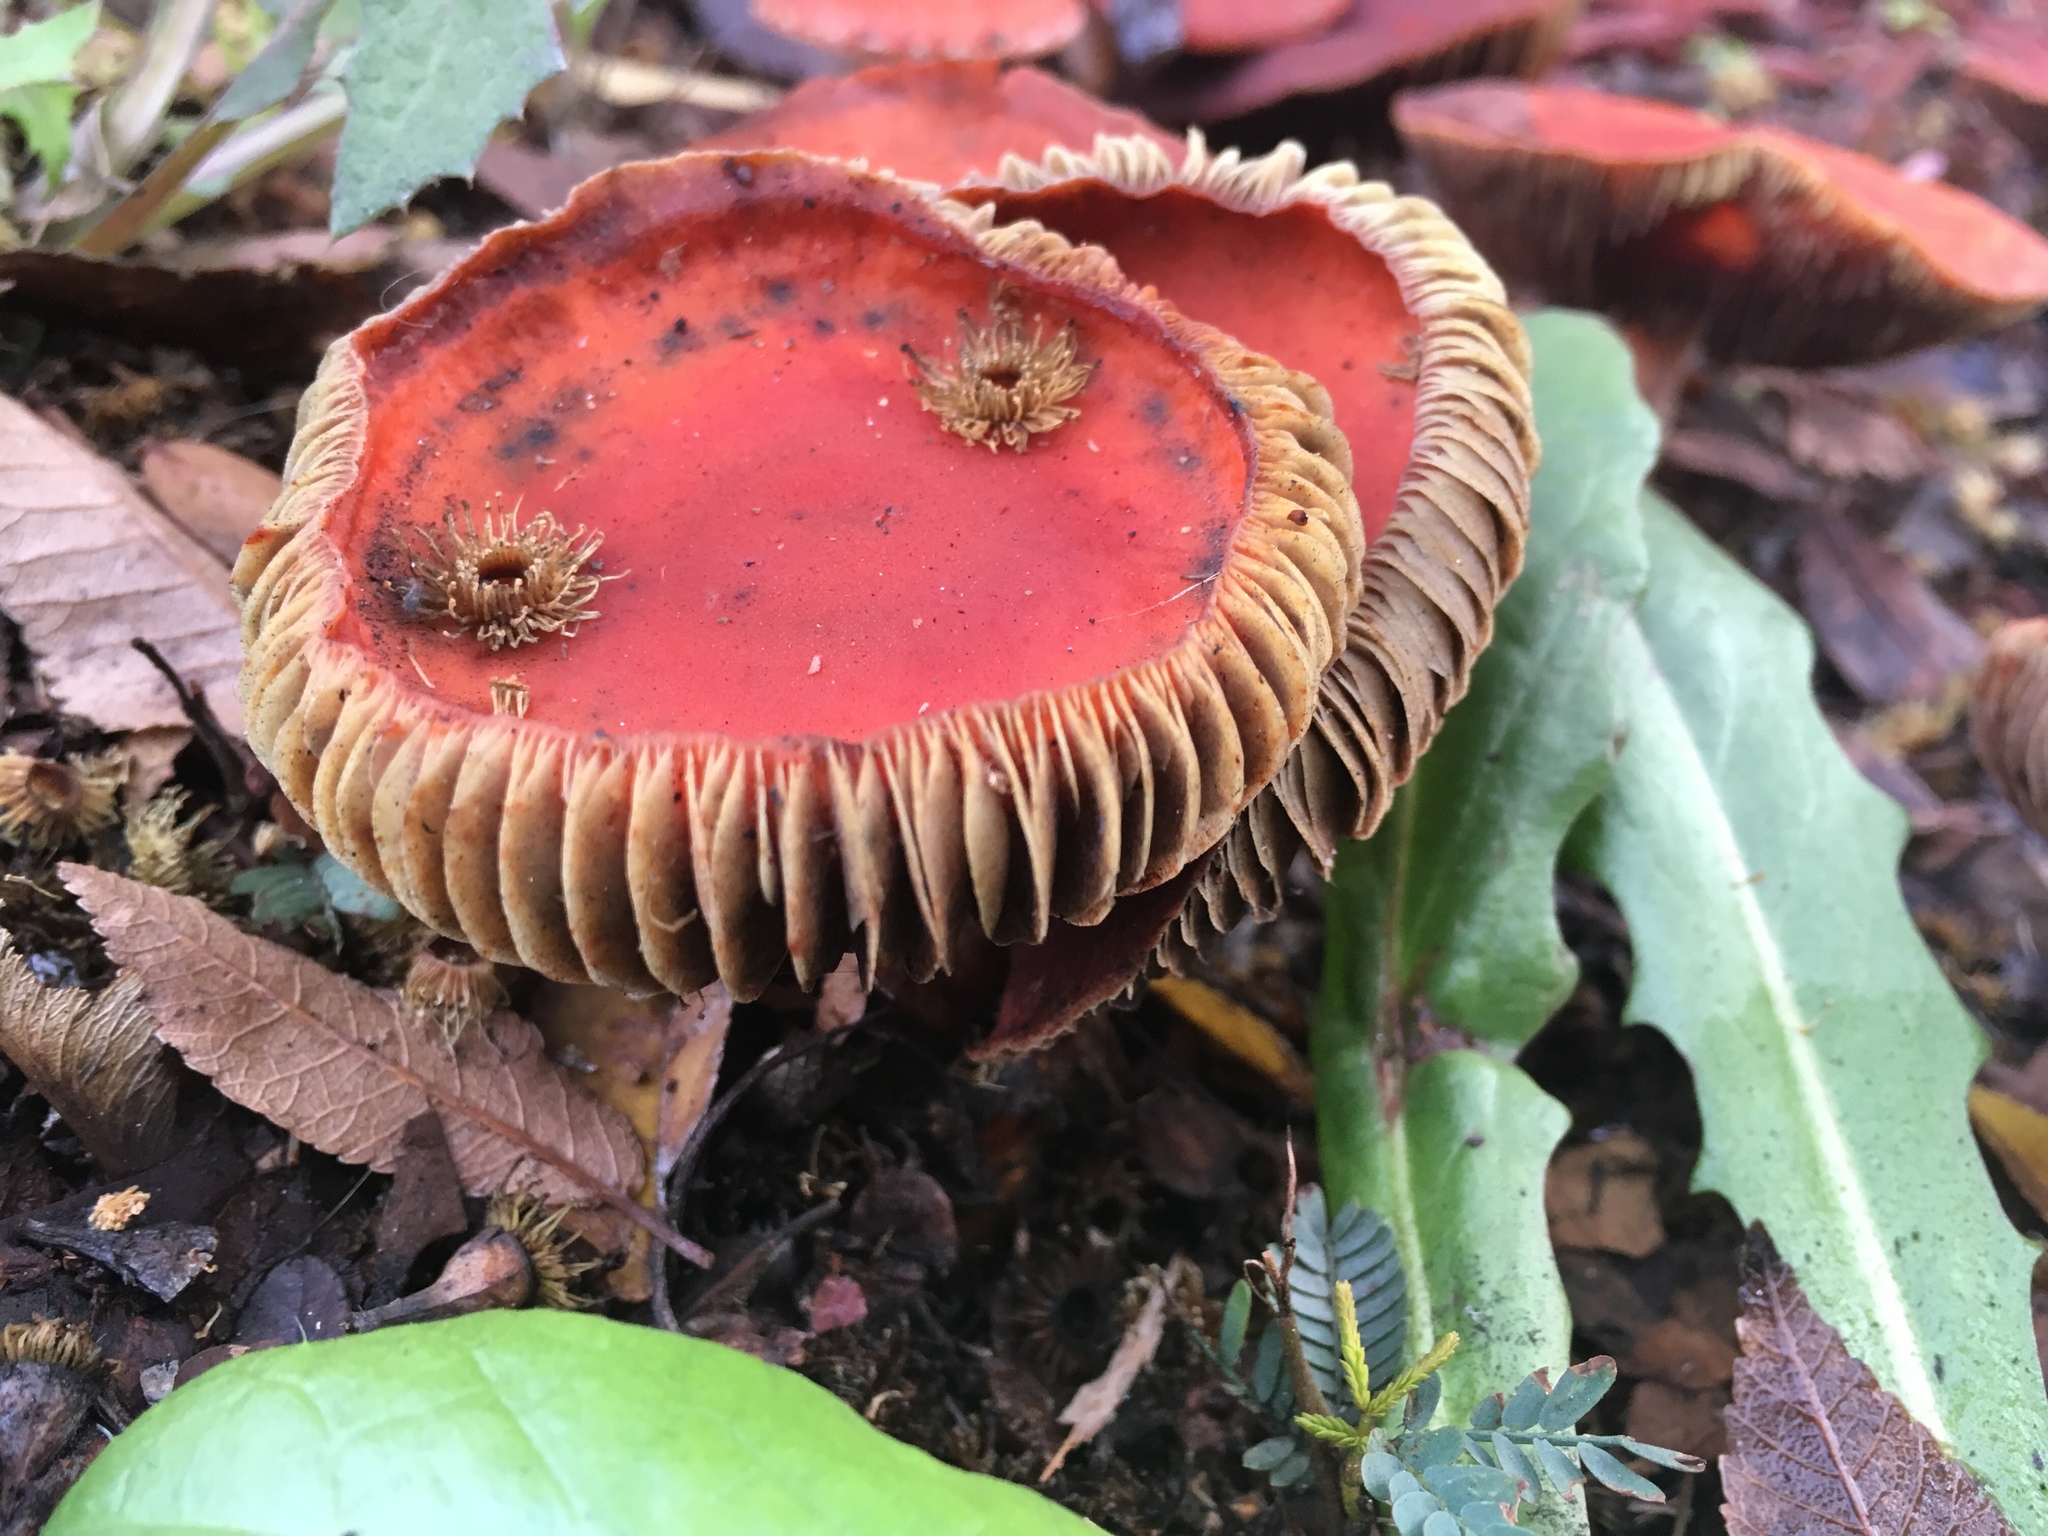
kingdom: Fungi
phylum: Basidiomycota
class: Agaricomycetes
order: Agaricales
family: Strophariaceae
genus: Leratiomyces
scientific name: Leratiomyces ceres
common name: Redlead roundhead
